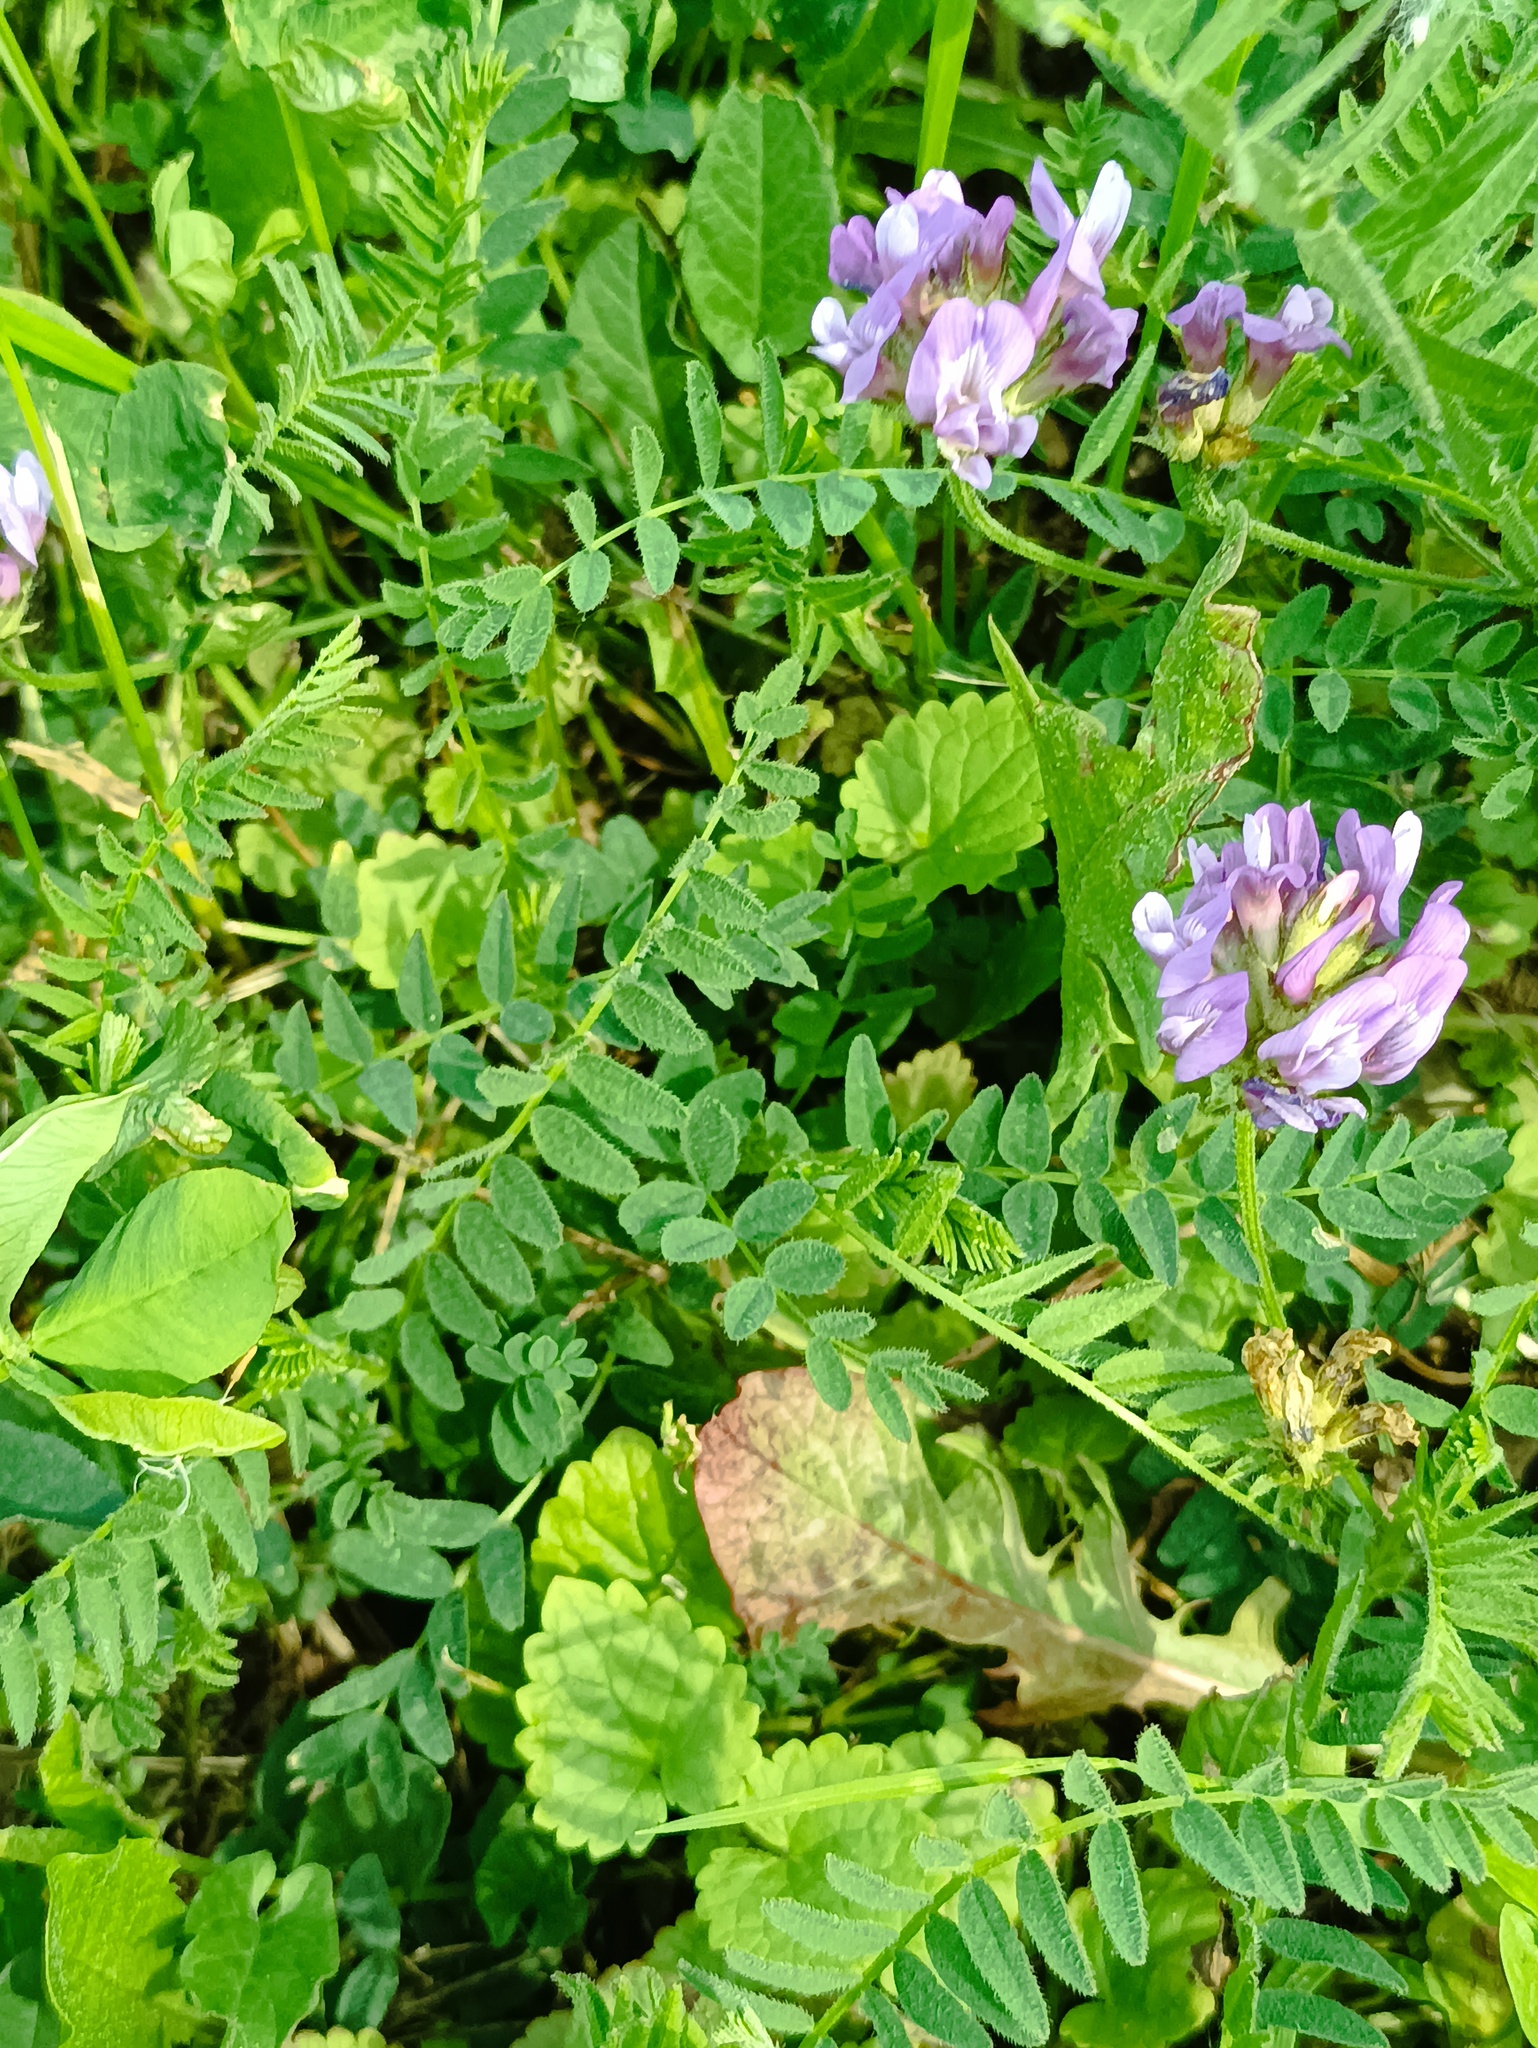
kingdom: Plantae
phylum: Tracheophyta
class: Magnoliopsida
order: Fabales
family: Fabaceae
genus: Astragalus
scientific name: Astragalus danicus
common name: Purple milk-vetch
